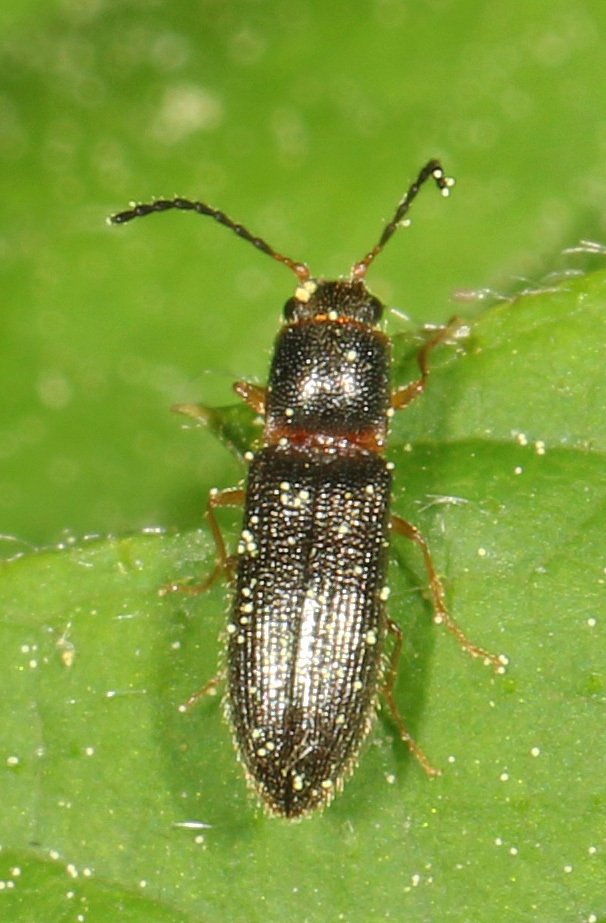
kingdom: Animalia
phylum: Arthropoda
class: Insecta
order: Coleoptera
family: Elateridae
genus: Tetralimonius
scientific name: Tetralimonius
